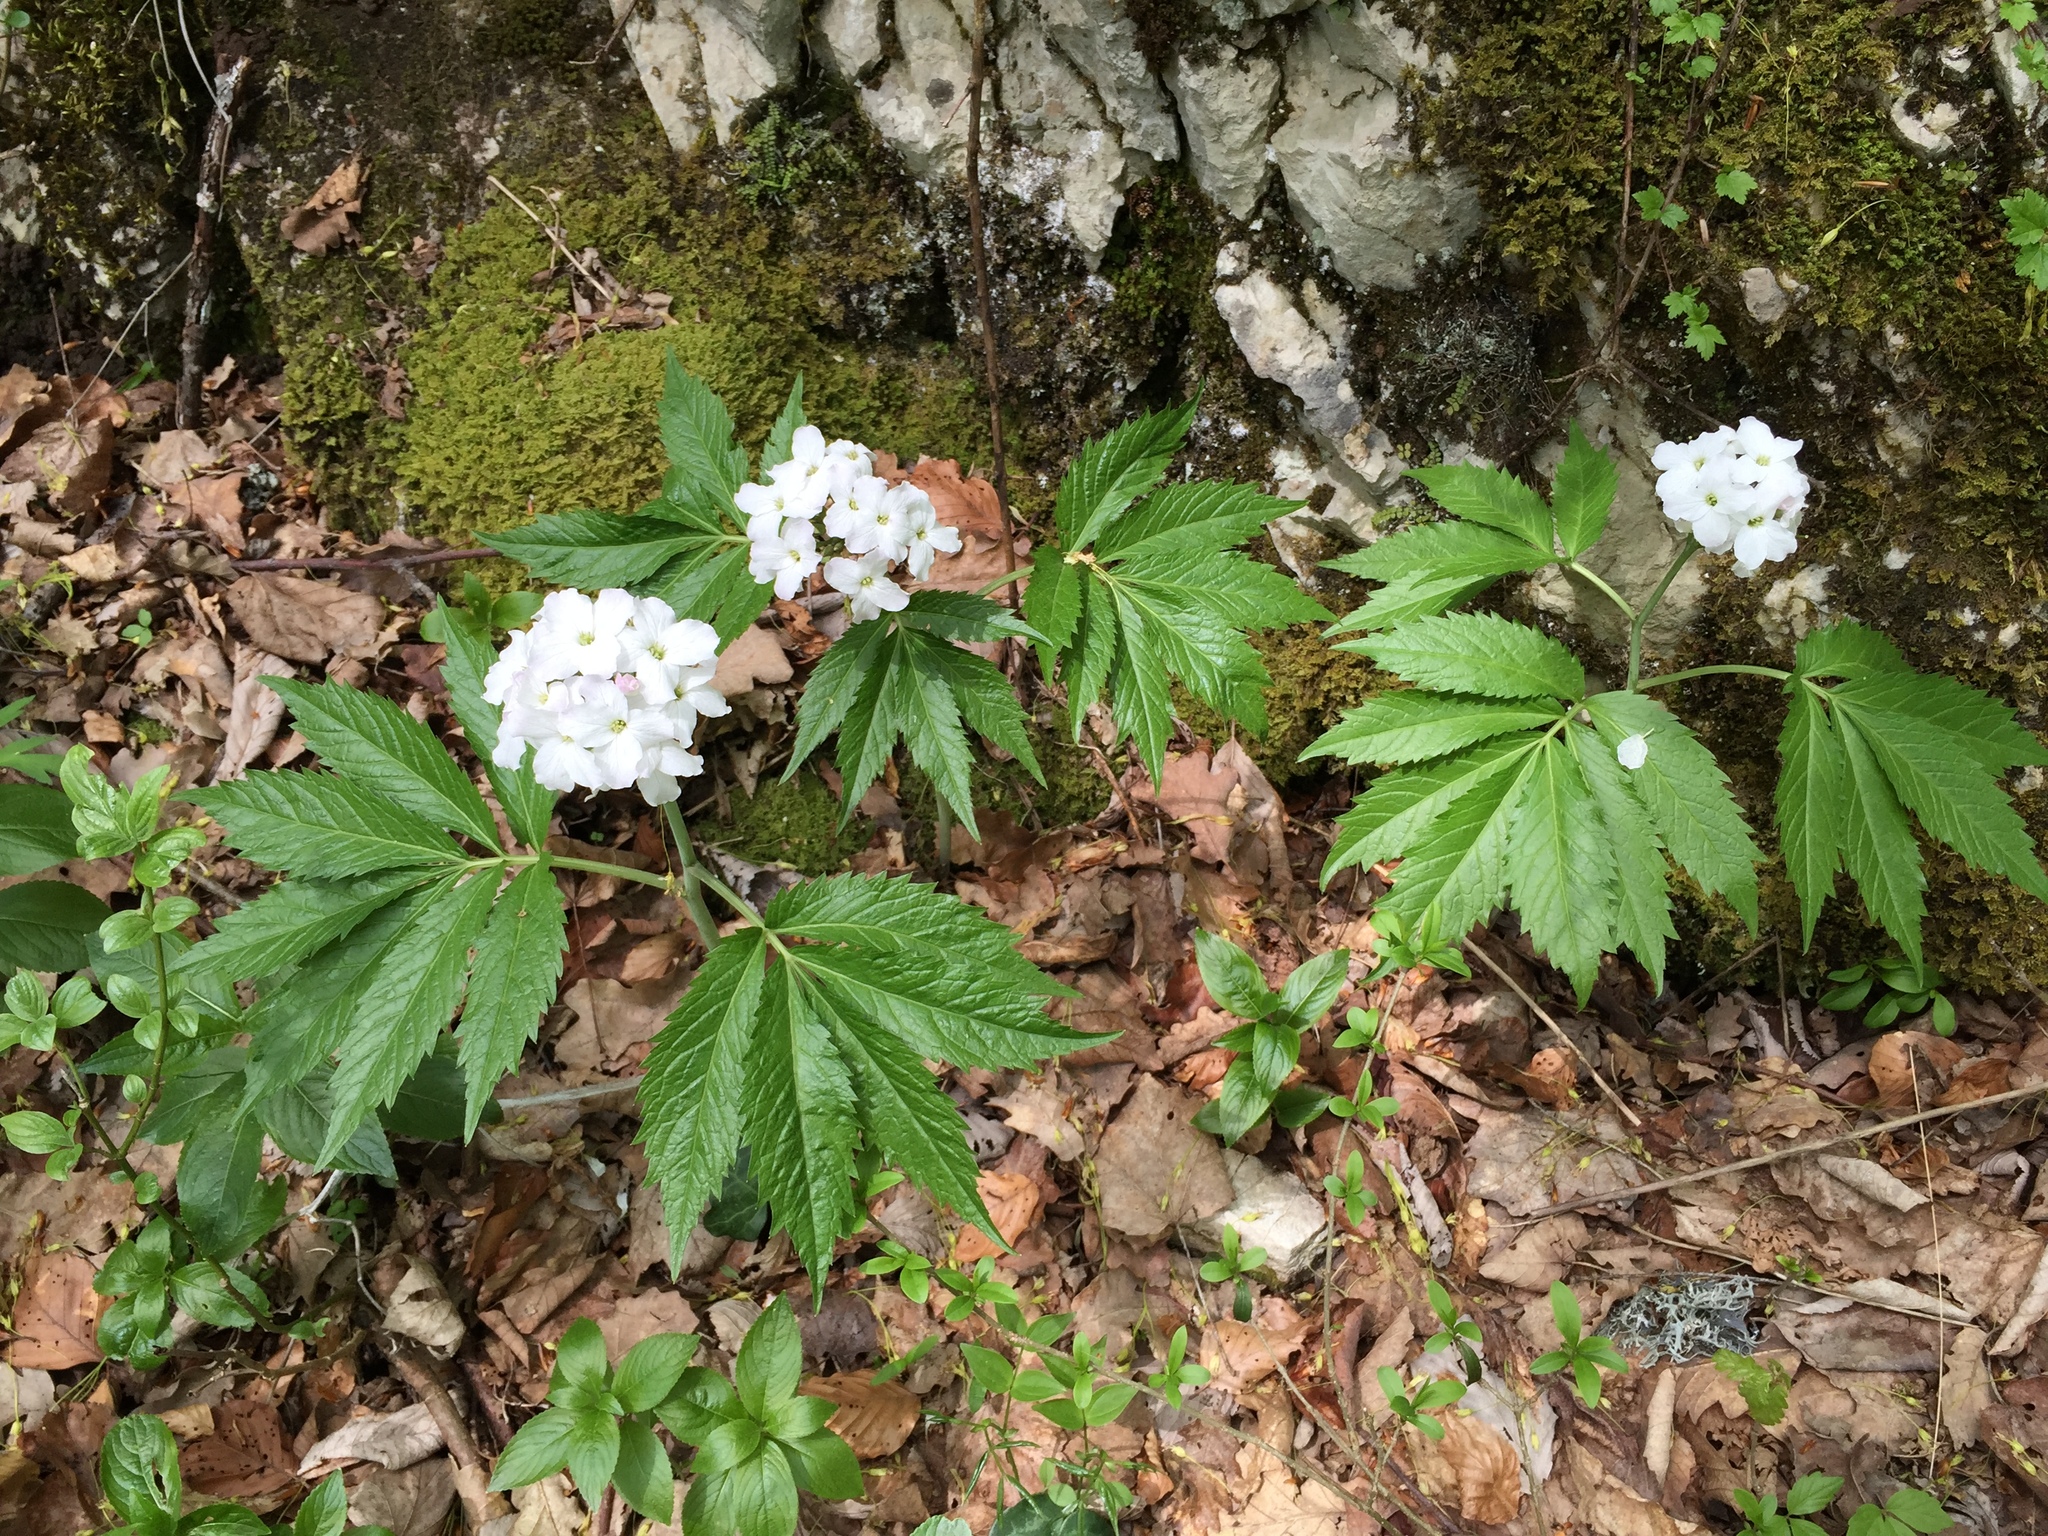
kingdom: Plantae
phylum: Tracheophyta
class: Magnoliopsida
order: Brassicales
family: Brassicaceae
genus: Cardamine
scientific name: Cardamine heptaphylla
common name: Pinnate coralroot
